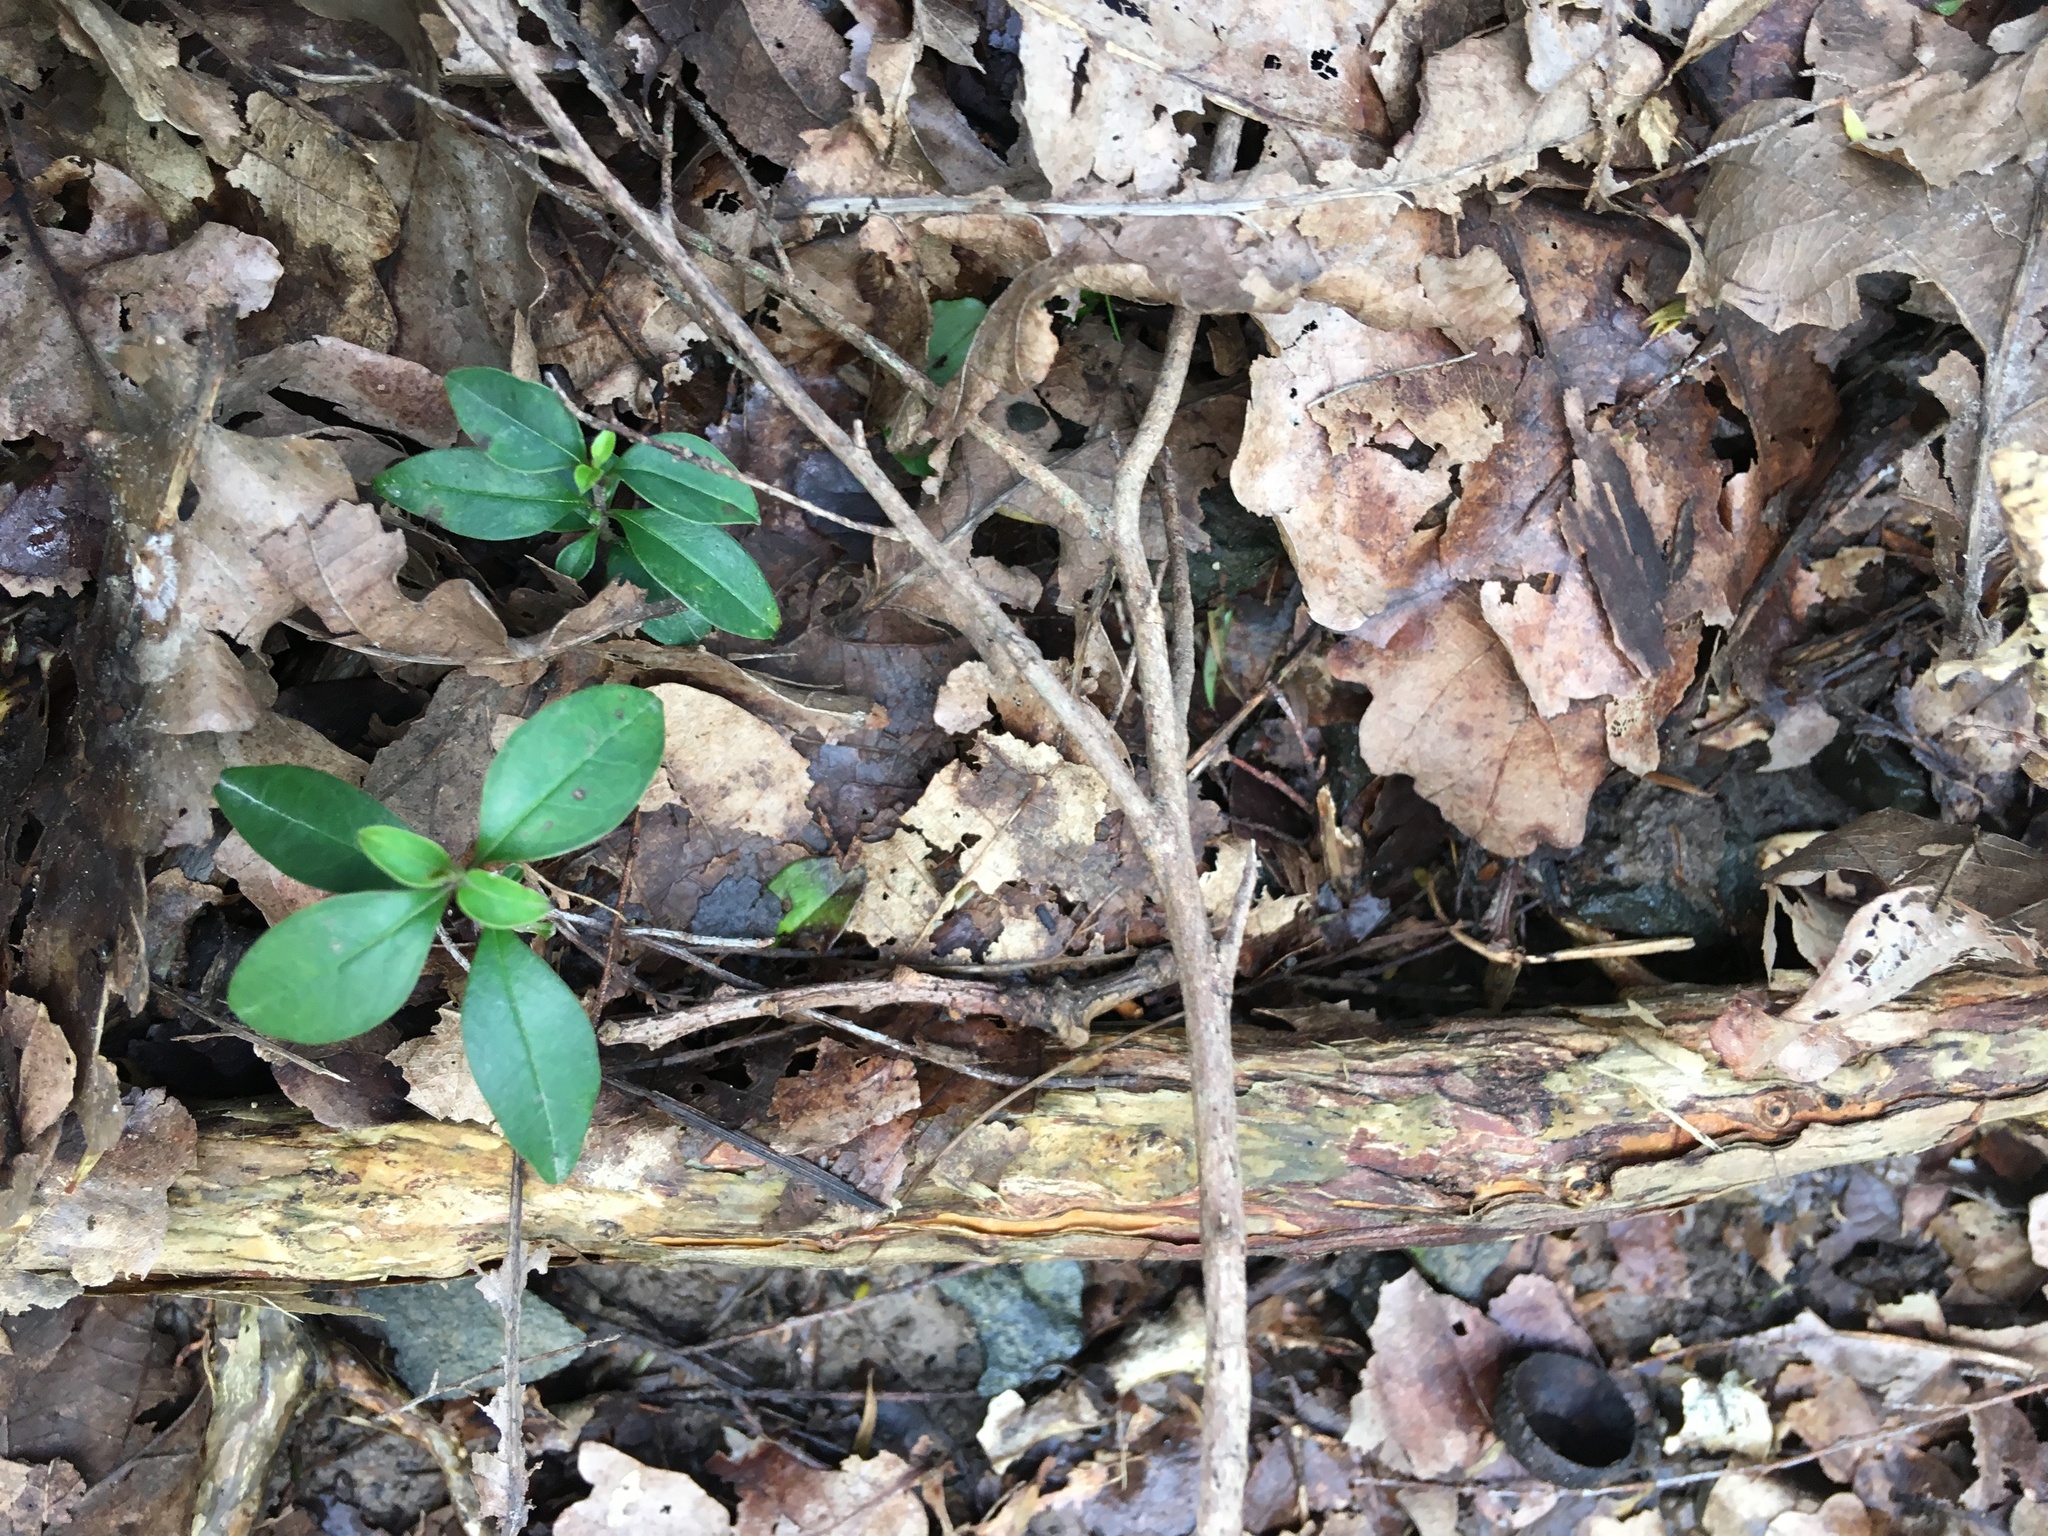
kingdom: Plantae
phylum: Tracheophyta
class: Magnoliopsida
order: Lamiales
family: Oleaceae
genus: Ligustrum
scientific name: Ligustrum lucidum
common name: Glossy privet
